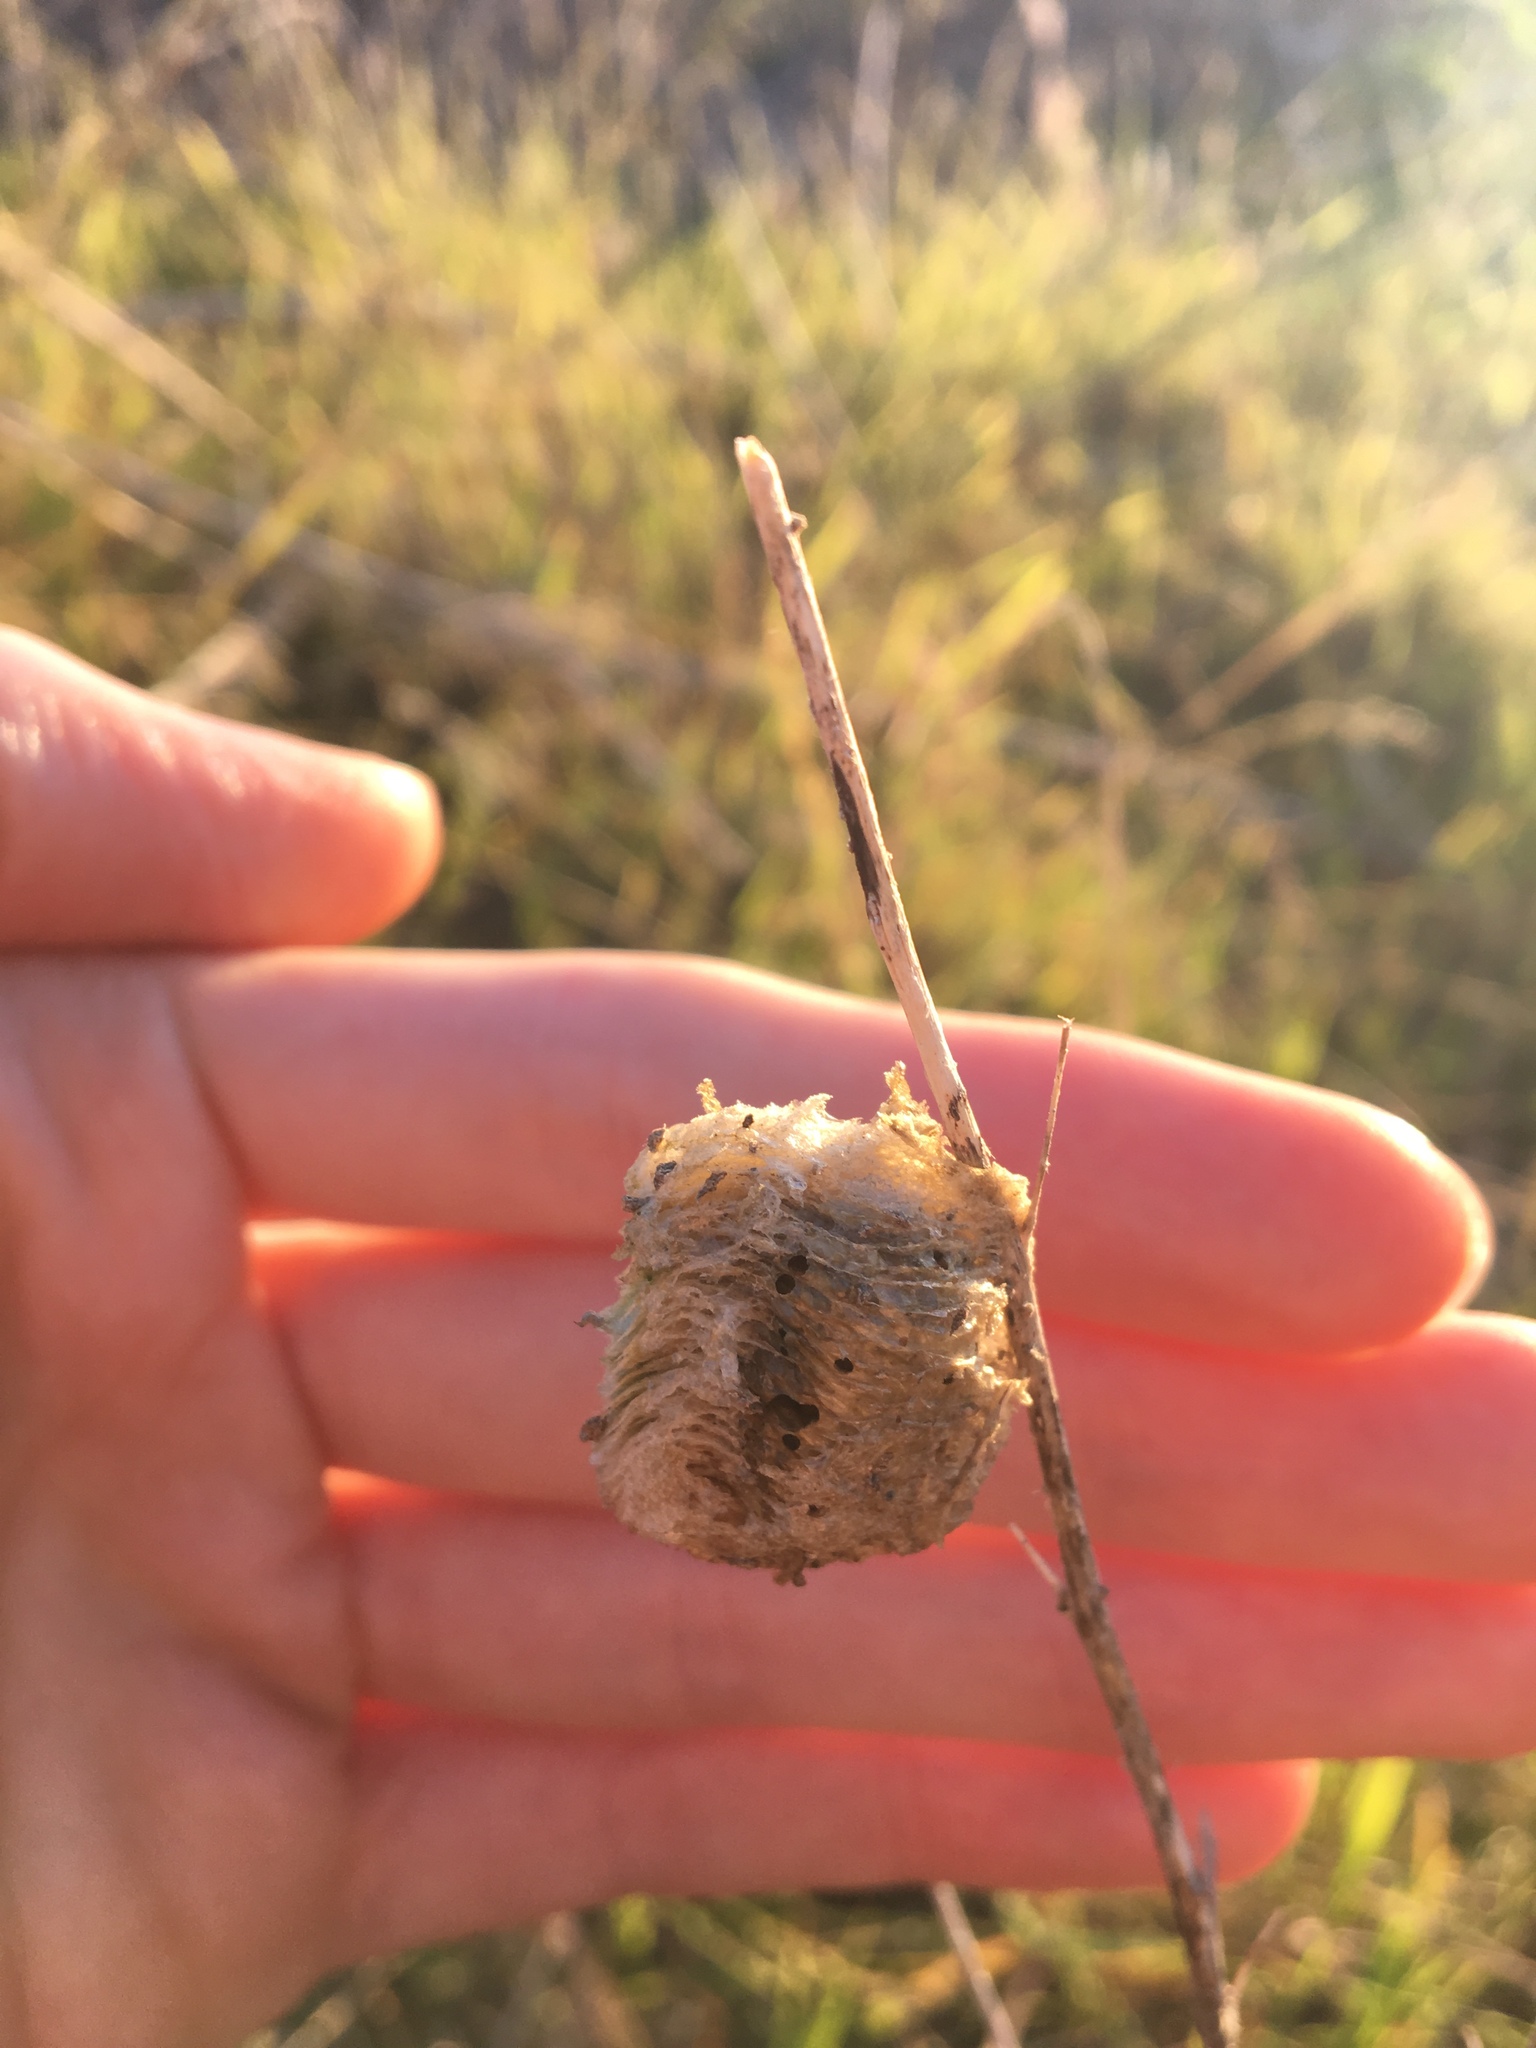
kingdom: Animalia
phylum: Arthropoda
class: Insecta
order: Mantodea
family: Mantidae
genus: Archimantis
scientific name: Archimantis latistyla
